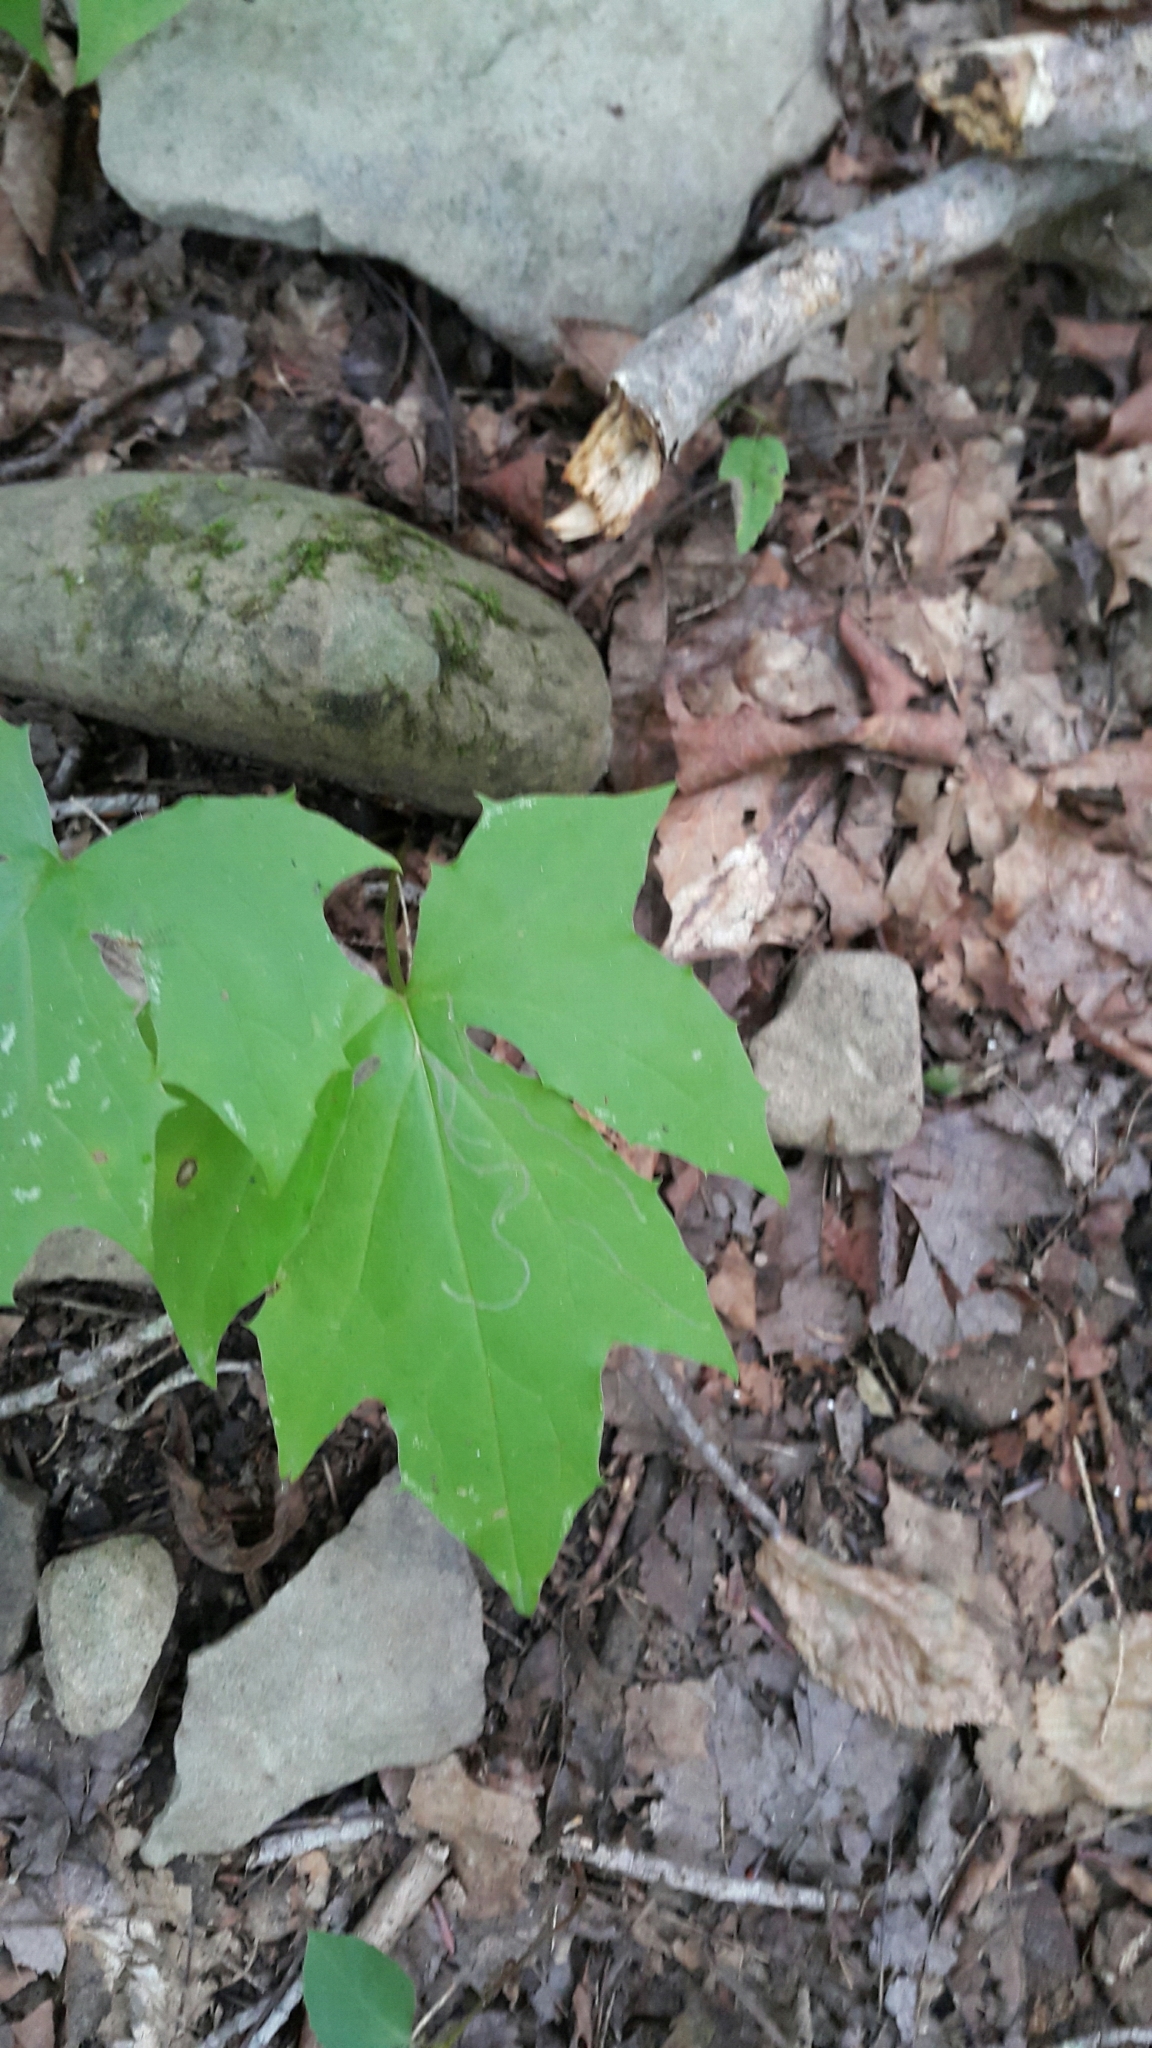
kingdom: Plantae
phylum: Tracheophyta
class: Magnoliopsida
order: Asterales
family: Asteraceae
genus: Nabalus
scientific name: Nabalus
